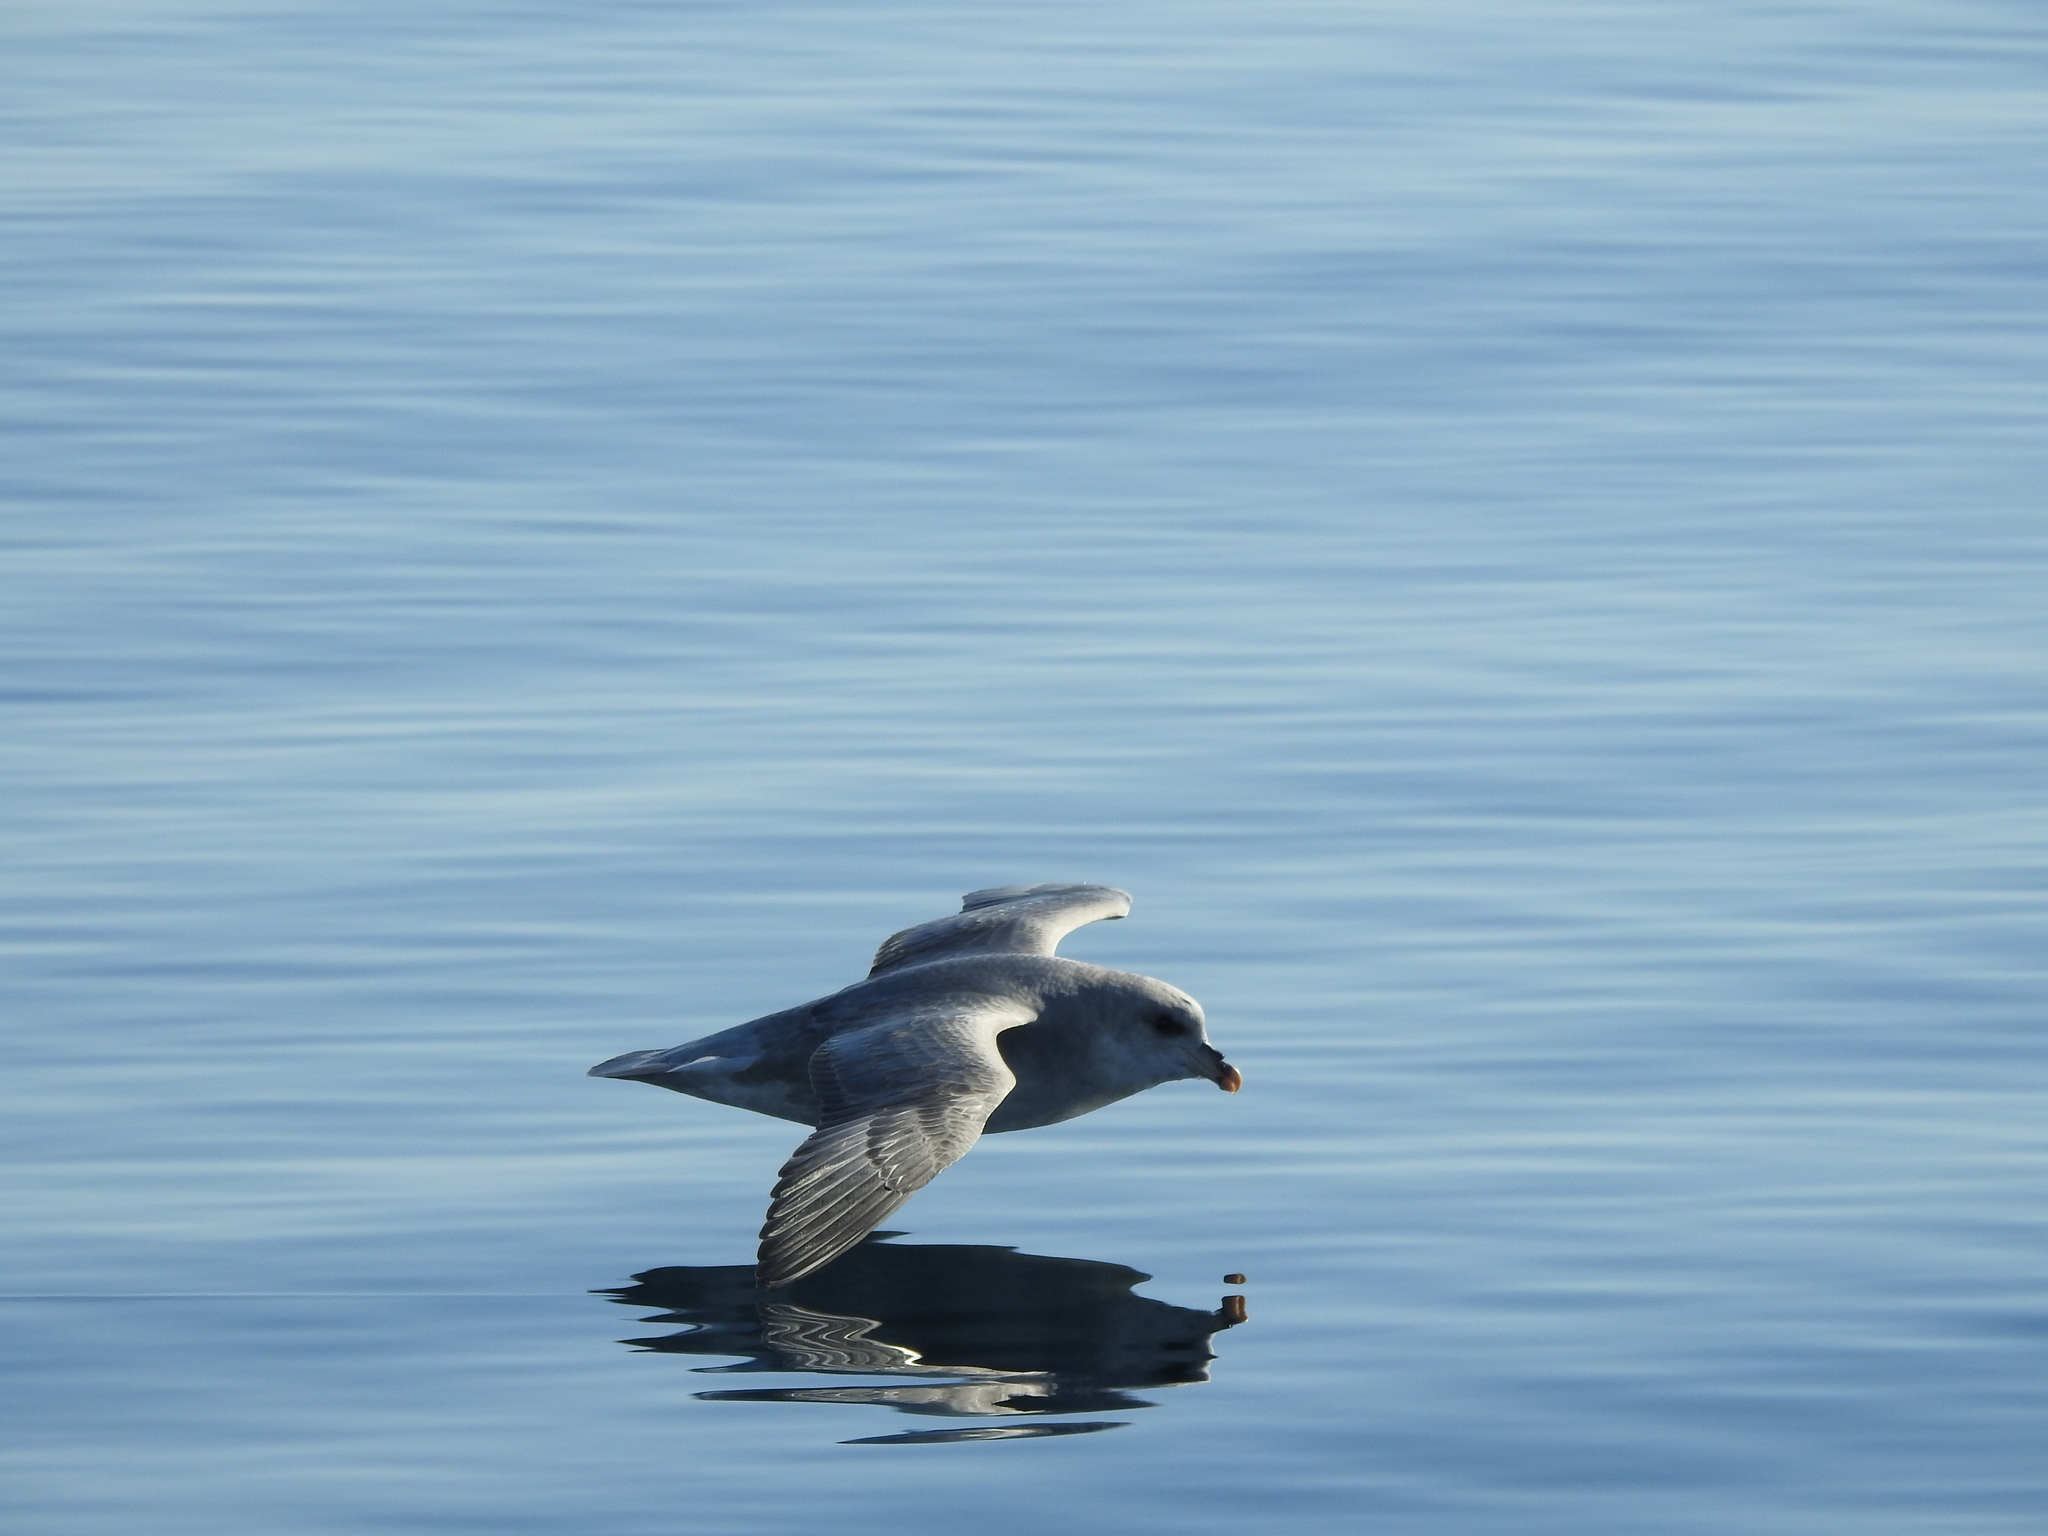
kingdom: Animalia
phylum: Chordata
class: Aves
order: Procellariiformes
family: Procellariidae
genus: Fulmarus
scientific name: Fulmarus glacialis
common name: Northern fulmar
